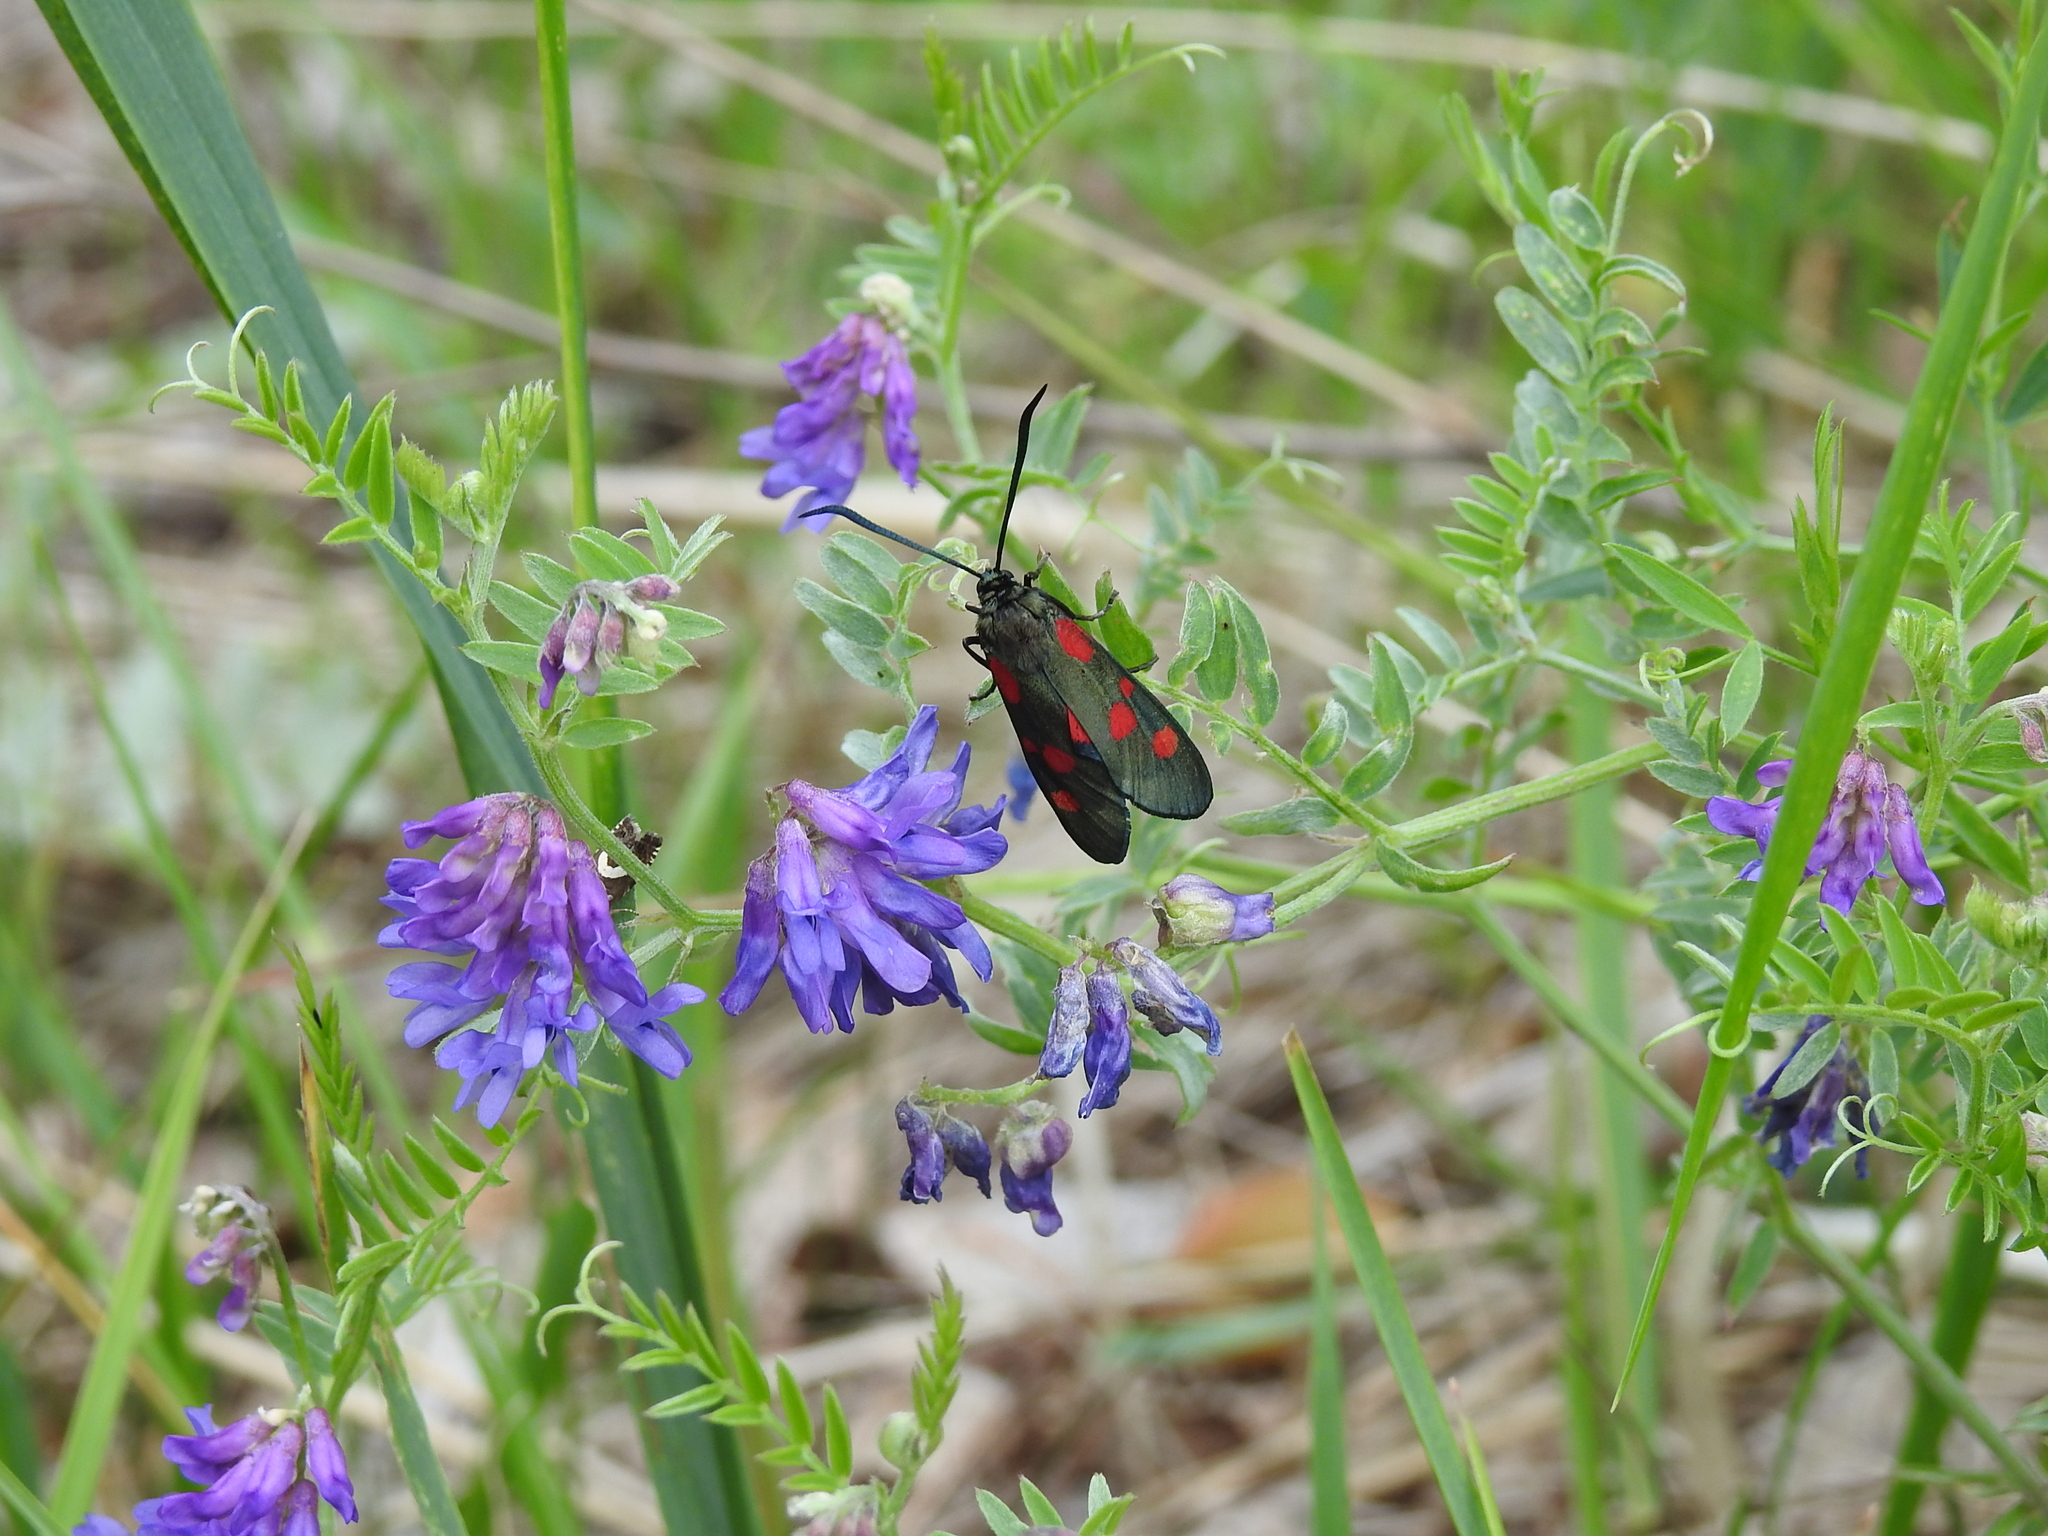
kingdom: Animalia
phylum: Arthropoda
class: Insecta
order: Lepidoptera
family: Zygaenidae
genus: Zygaena
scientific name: Zygaena lonicerae
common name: Narrow-bordered five-spot burnet
